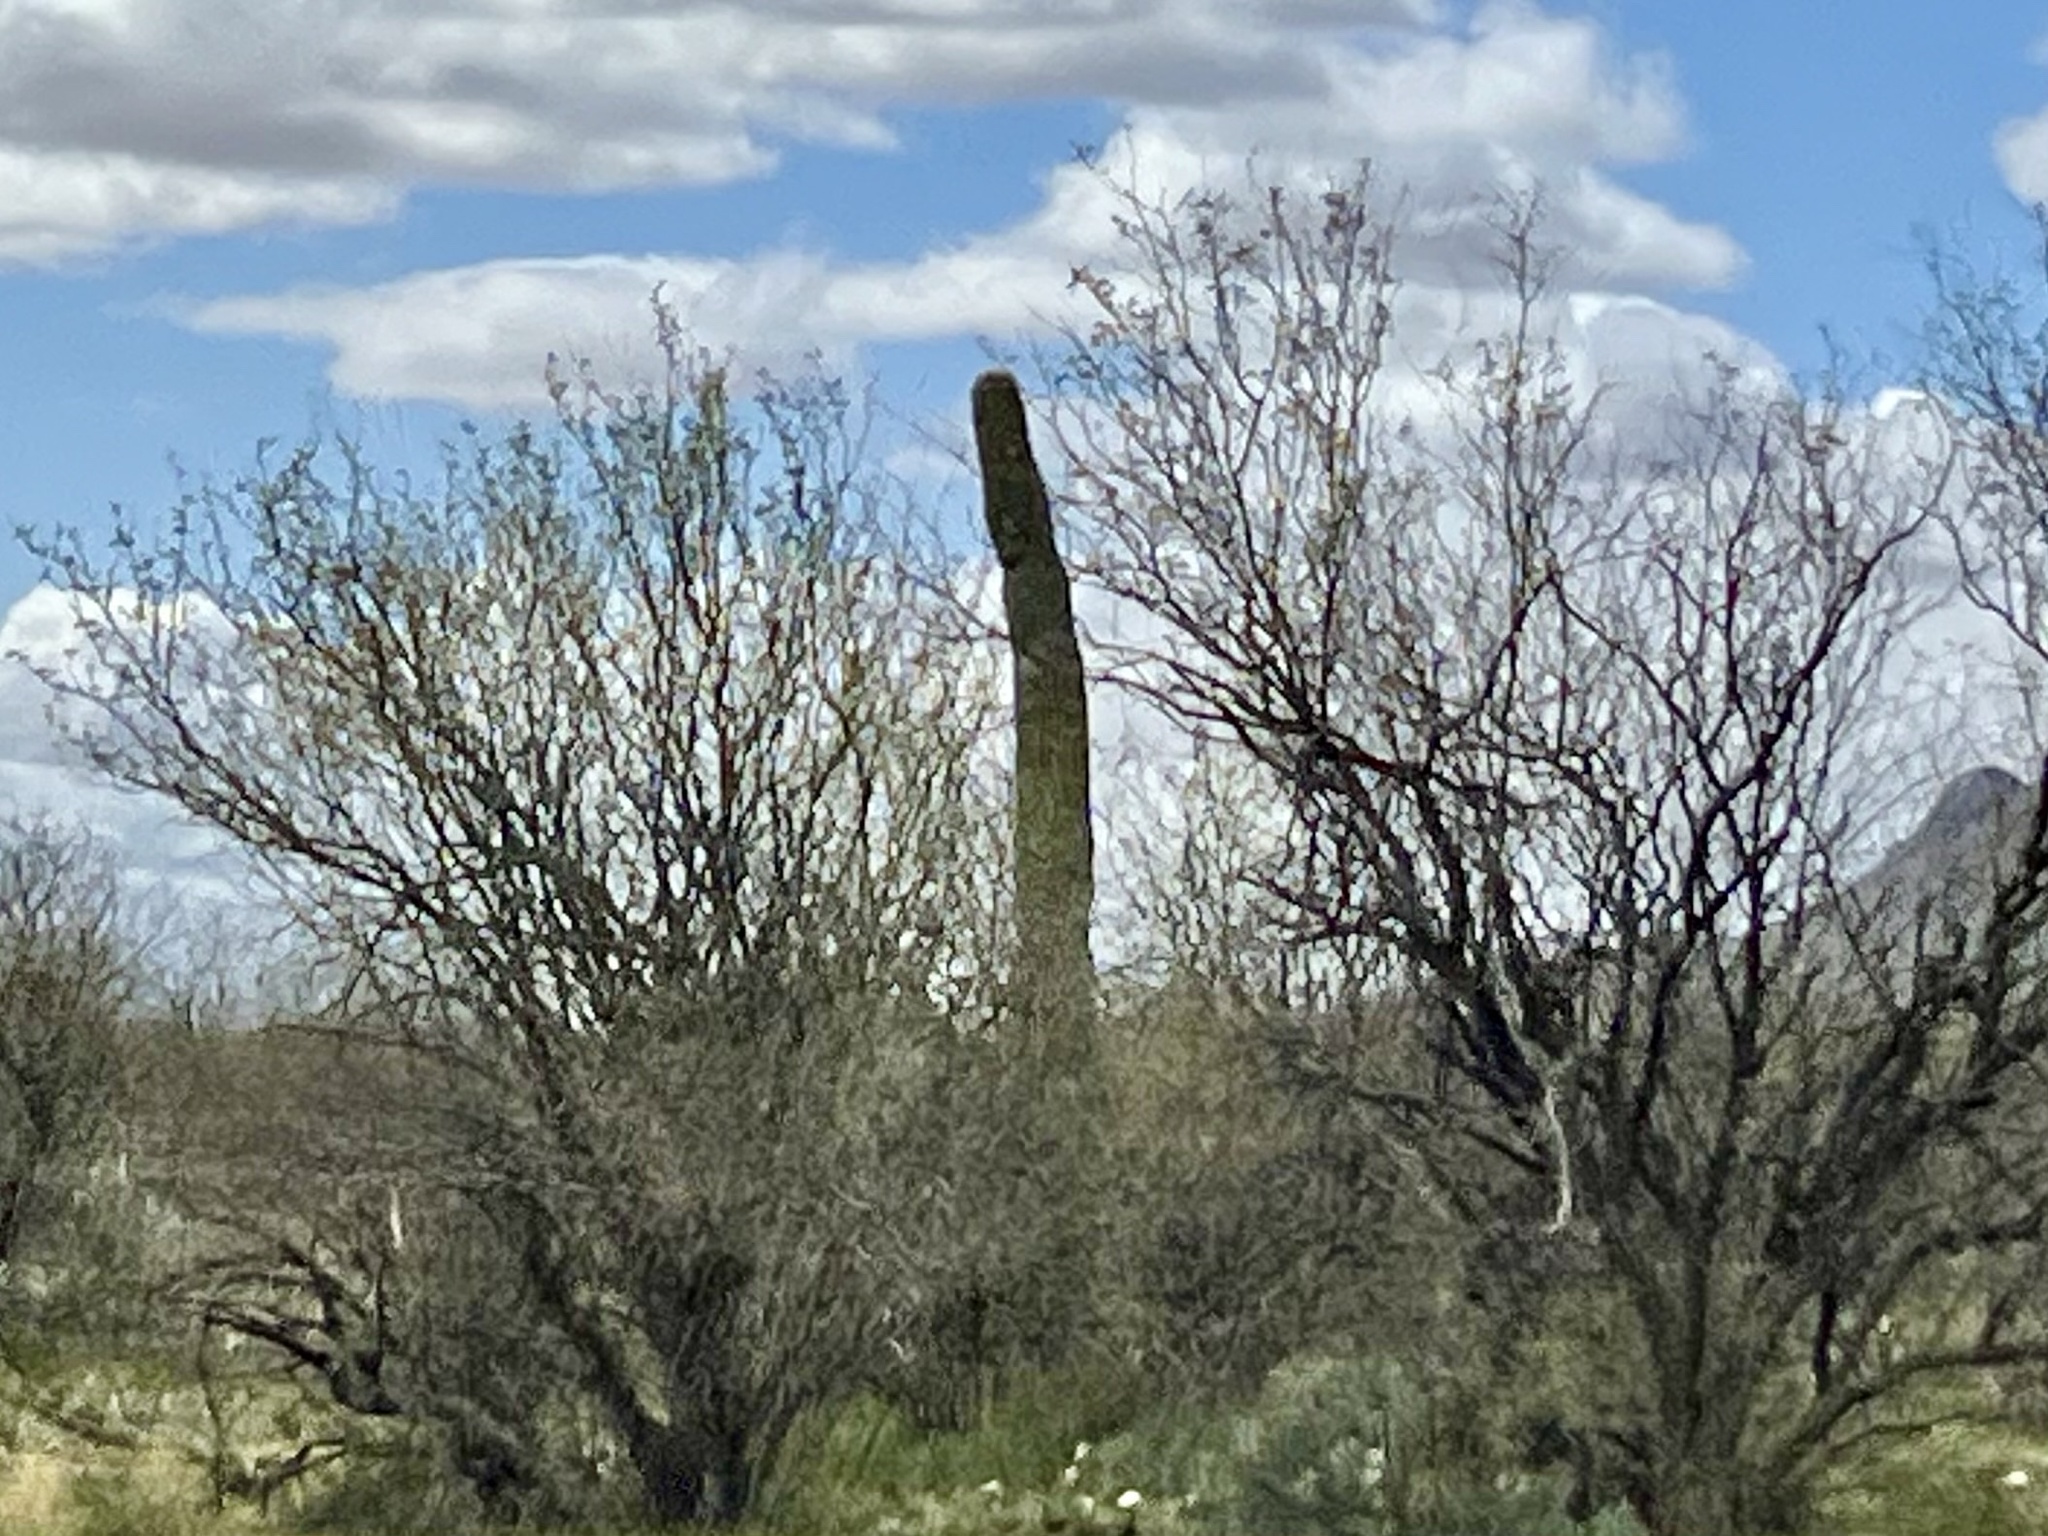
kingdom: Plantae
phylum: Tracheophyta
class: Magnoliopsida
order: Caryophyllales
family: Cactaceae
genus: Carnegiea
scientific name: Carnegiea gigantea
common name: Saguaro
